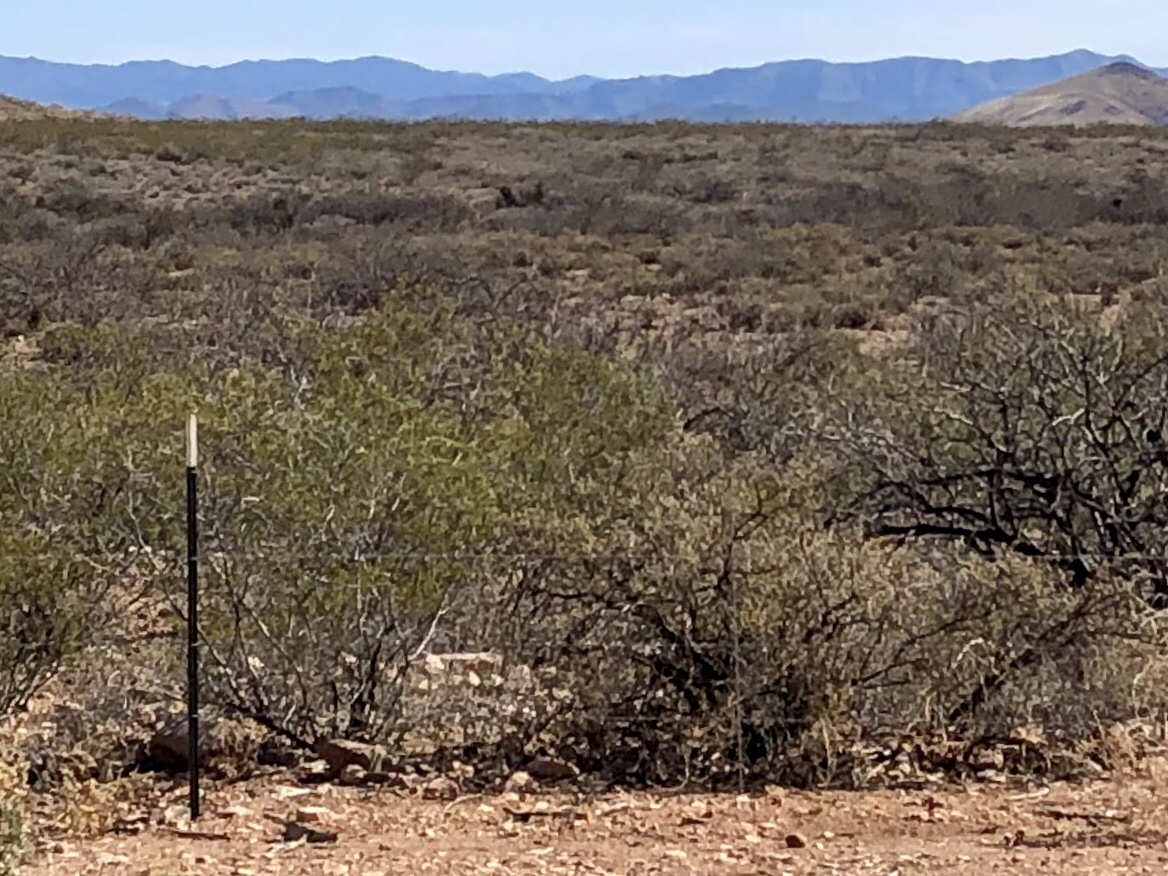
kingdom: Plantae
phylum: Tracheophyta
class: Magnoliopsida
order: Zygophyllales
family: Zygophyllaceae
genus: Larrea
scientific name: Larrea tridentata
